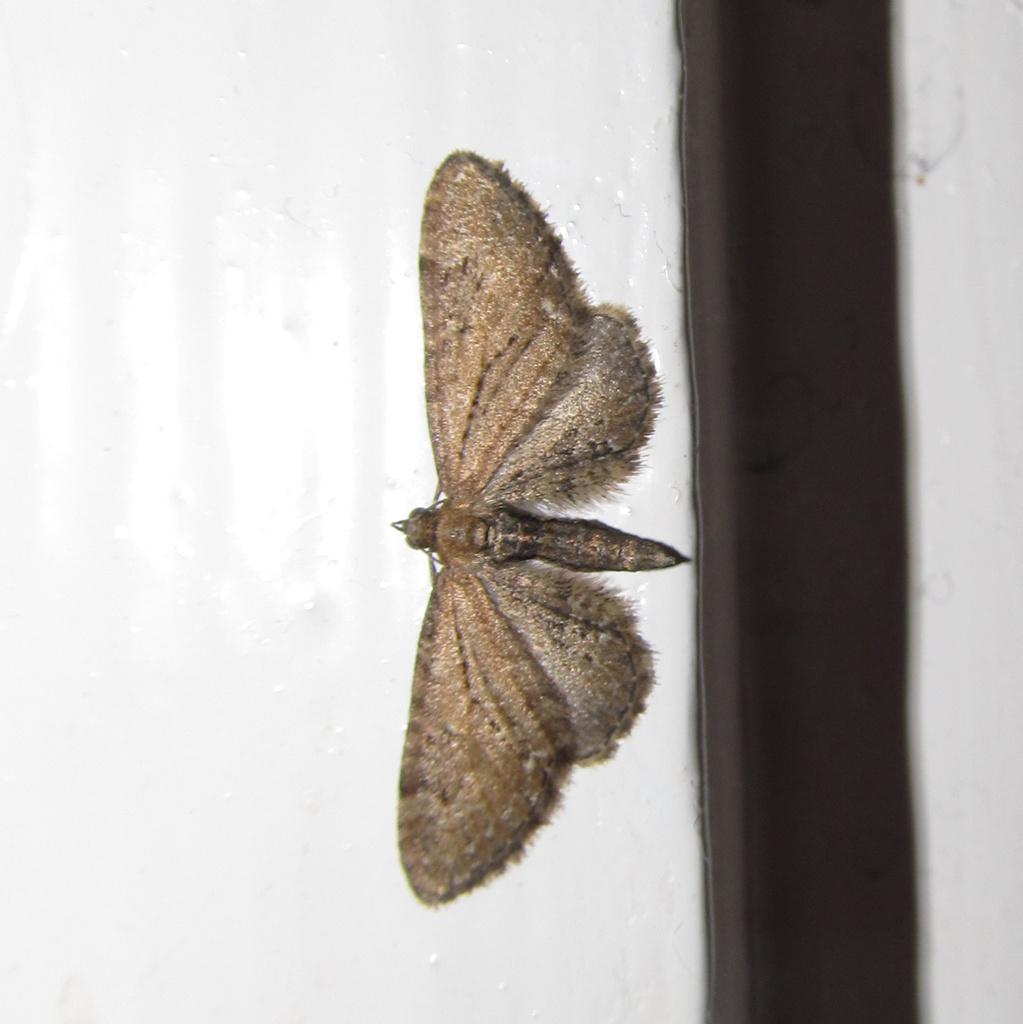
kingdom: Animalia
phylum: Arthropoda
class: Insecta
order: Lepidoptera
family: Geometridae
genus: Eupithecia
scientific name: Eupithecia vulgata
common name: Common pug
